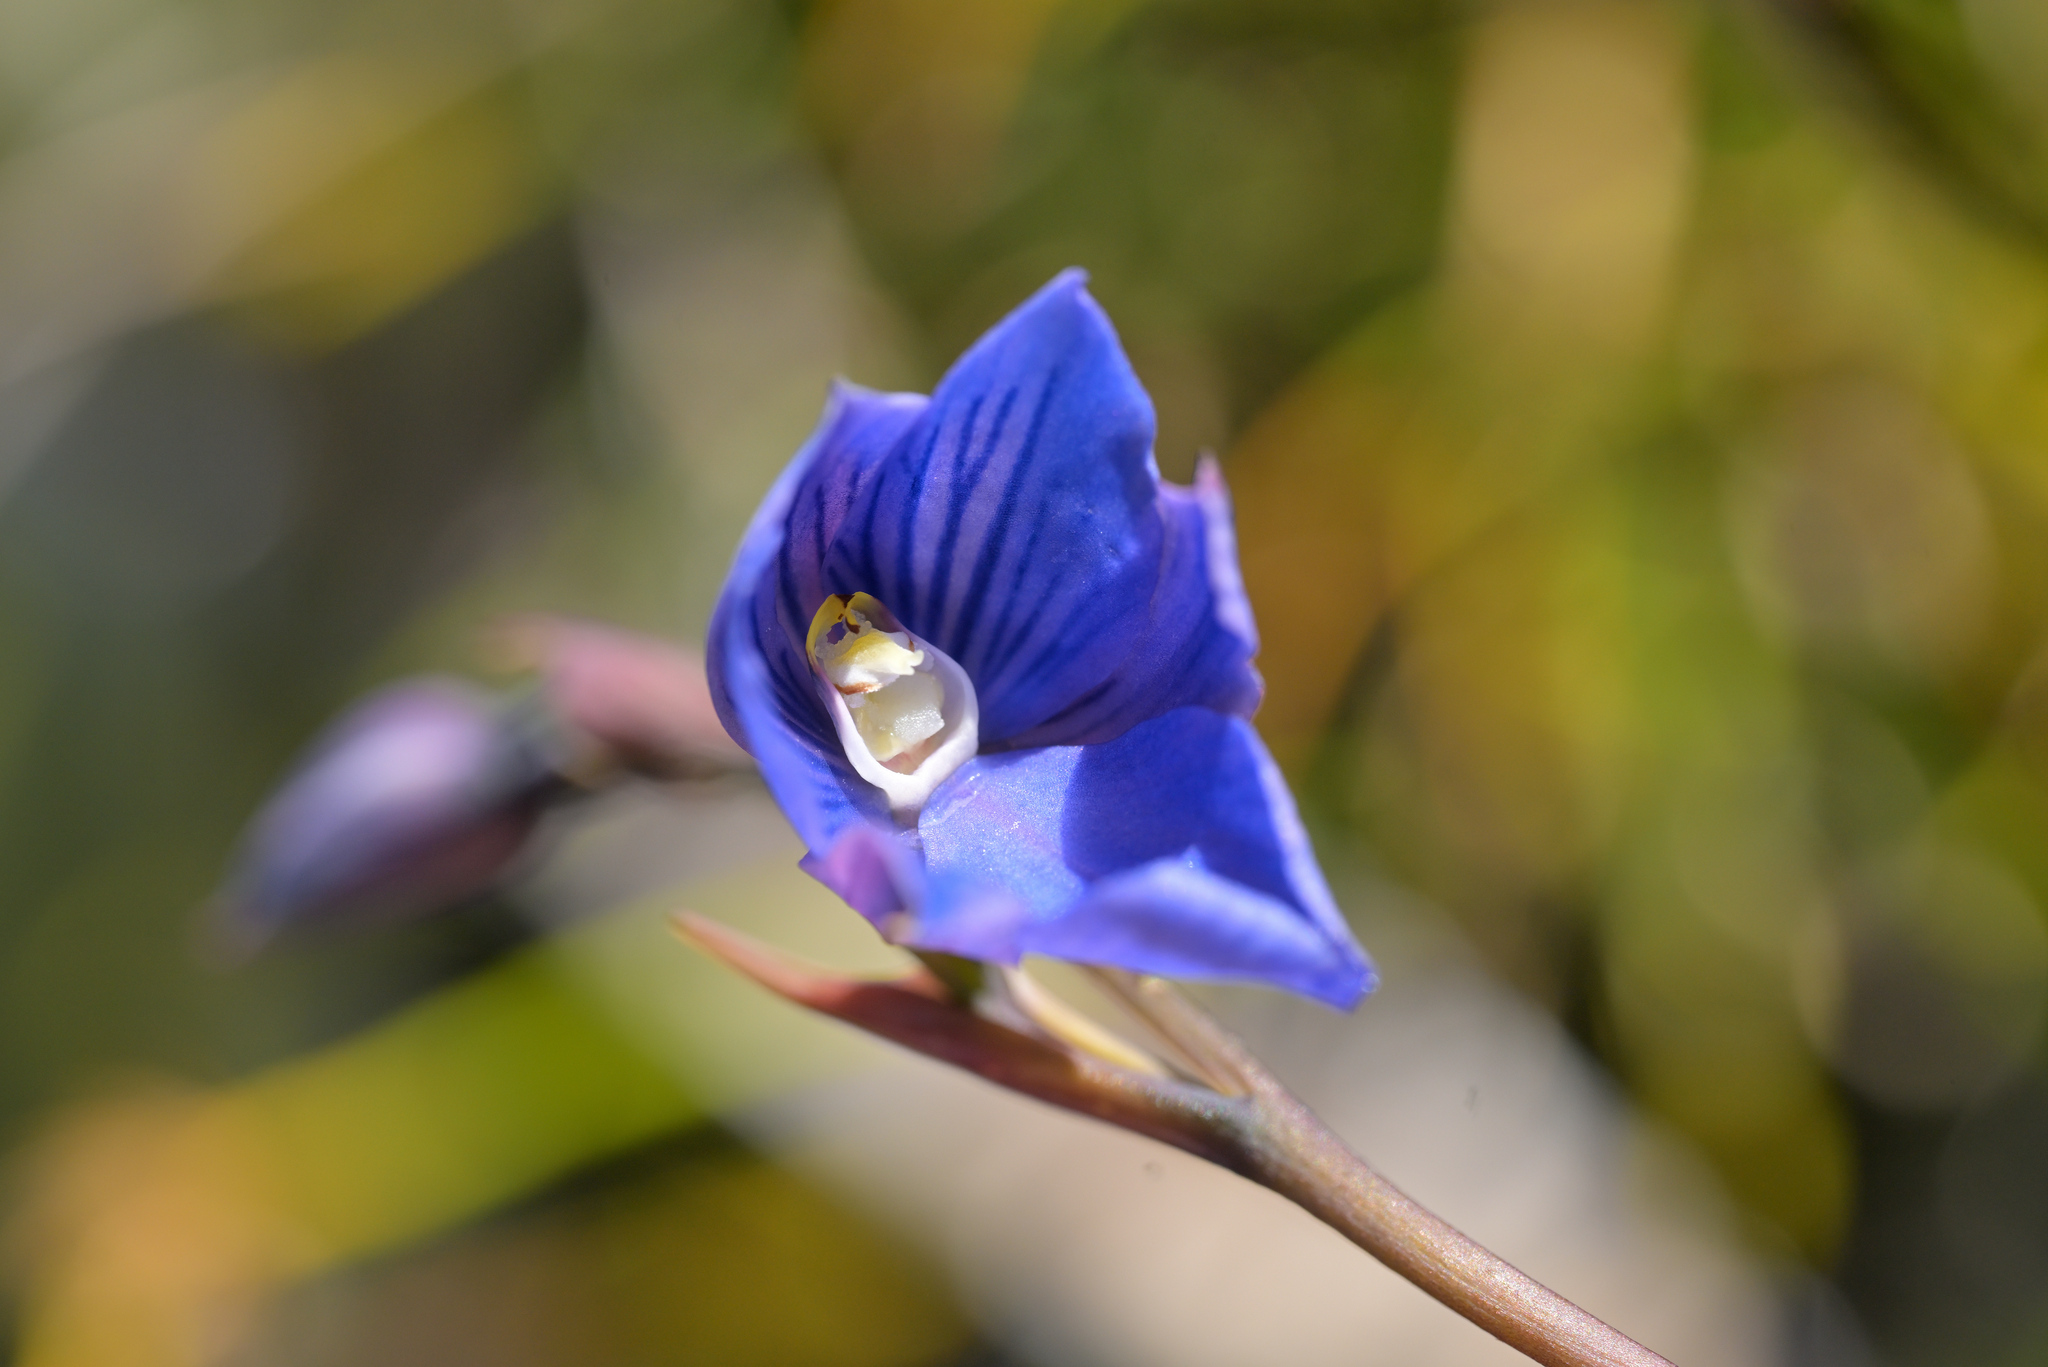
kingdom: Plantae
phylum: Tracheophyta
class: Liliopsida
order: Asparagales
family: Orchidaceae
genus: Thelymitra
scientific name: Thelymitra cyanea
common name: Blue sun-orchid
